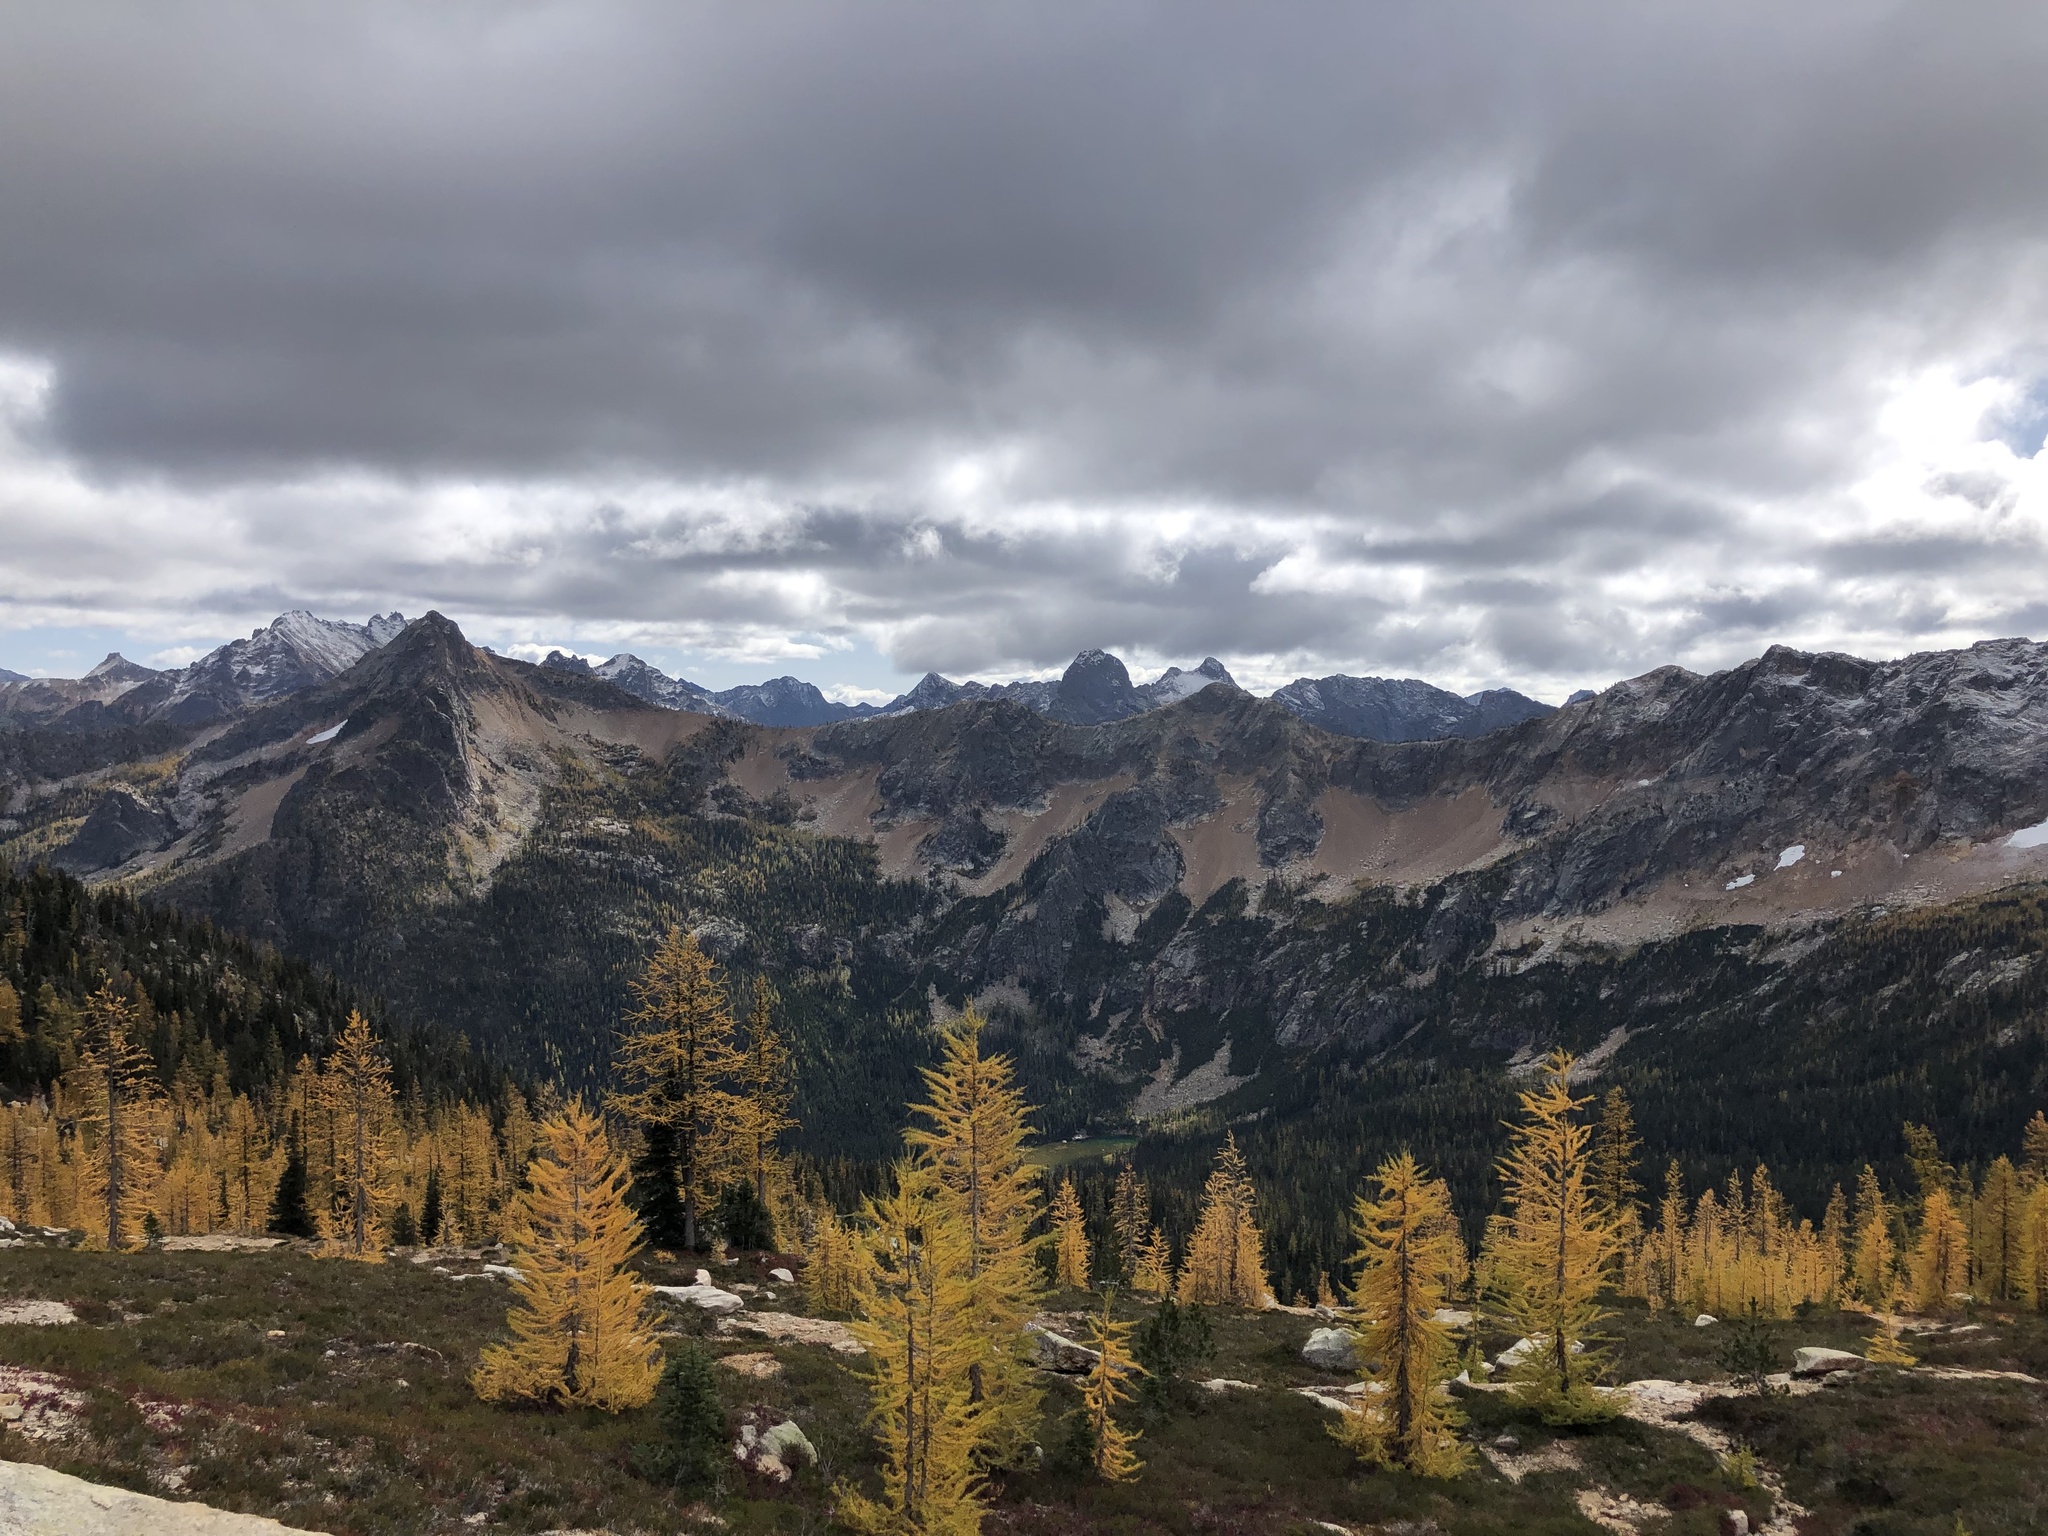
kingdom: Plantae
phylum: Tracheophyta
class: Pinopsida
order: Pinales
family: Pinaceae
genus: Larix
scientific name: Larix lyallii
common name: Alpine larch
